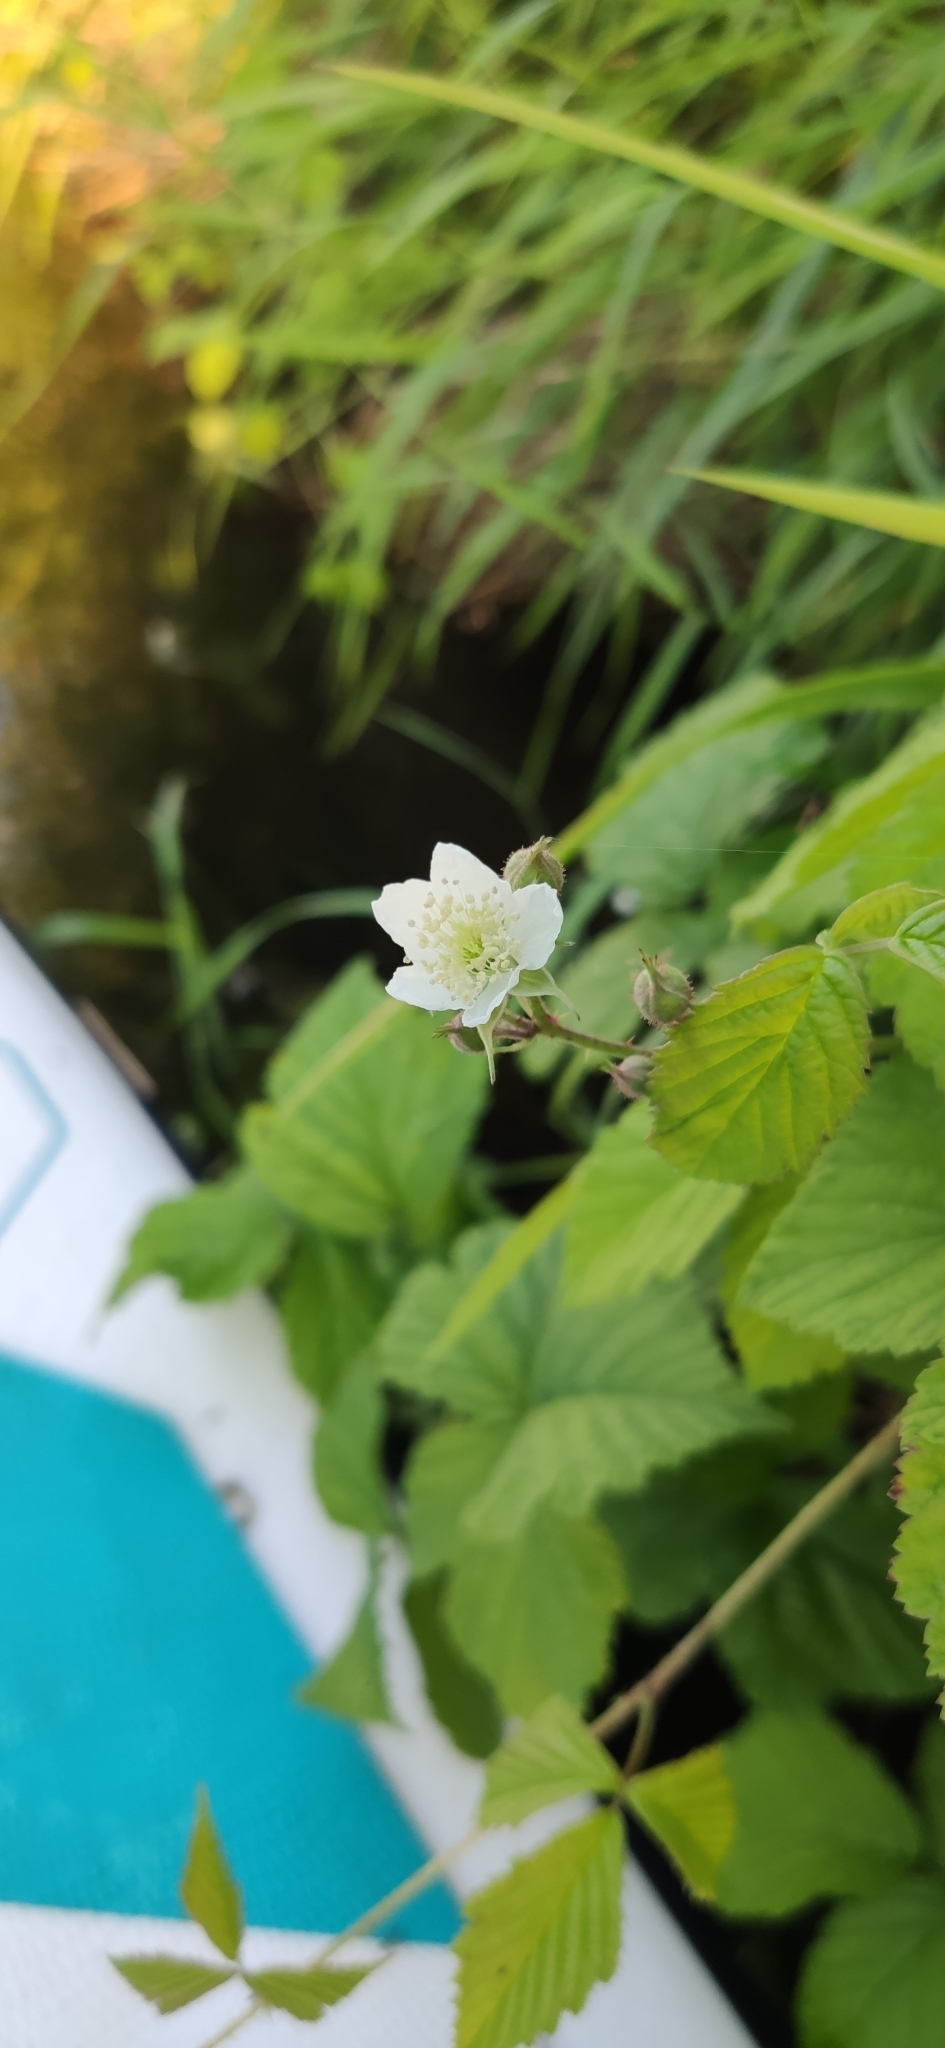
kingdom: Plantae
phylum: Tracheophyta
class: Magnoliopsida
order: Rosales
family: Rosaceae
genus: Rubus
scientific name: Rubus caesius
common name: Dewberry
